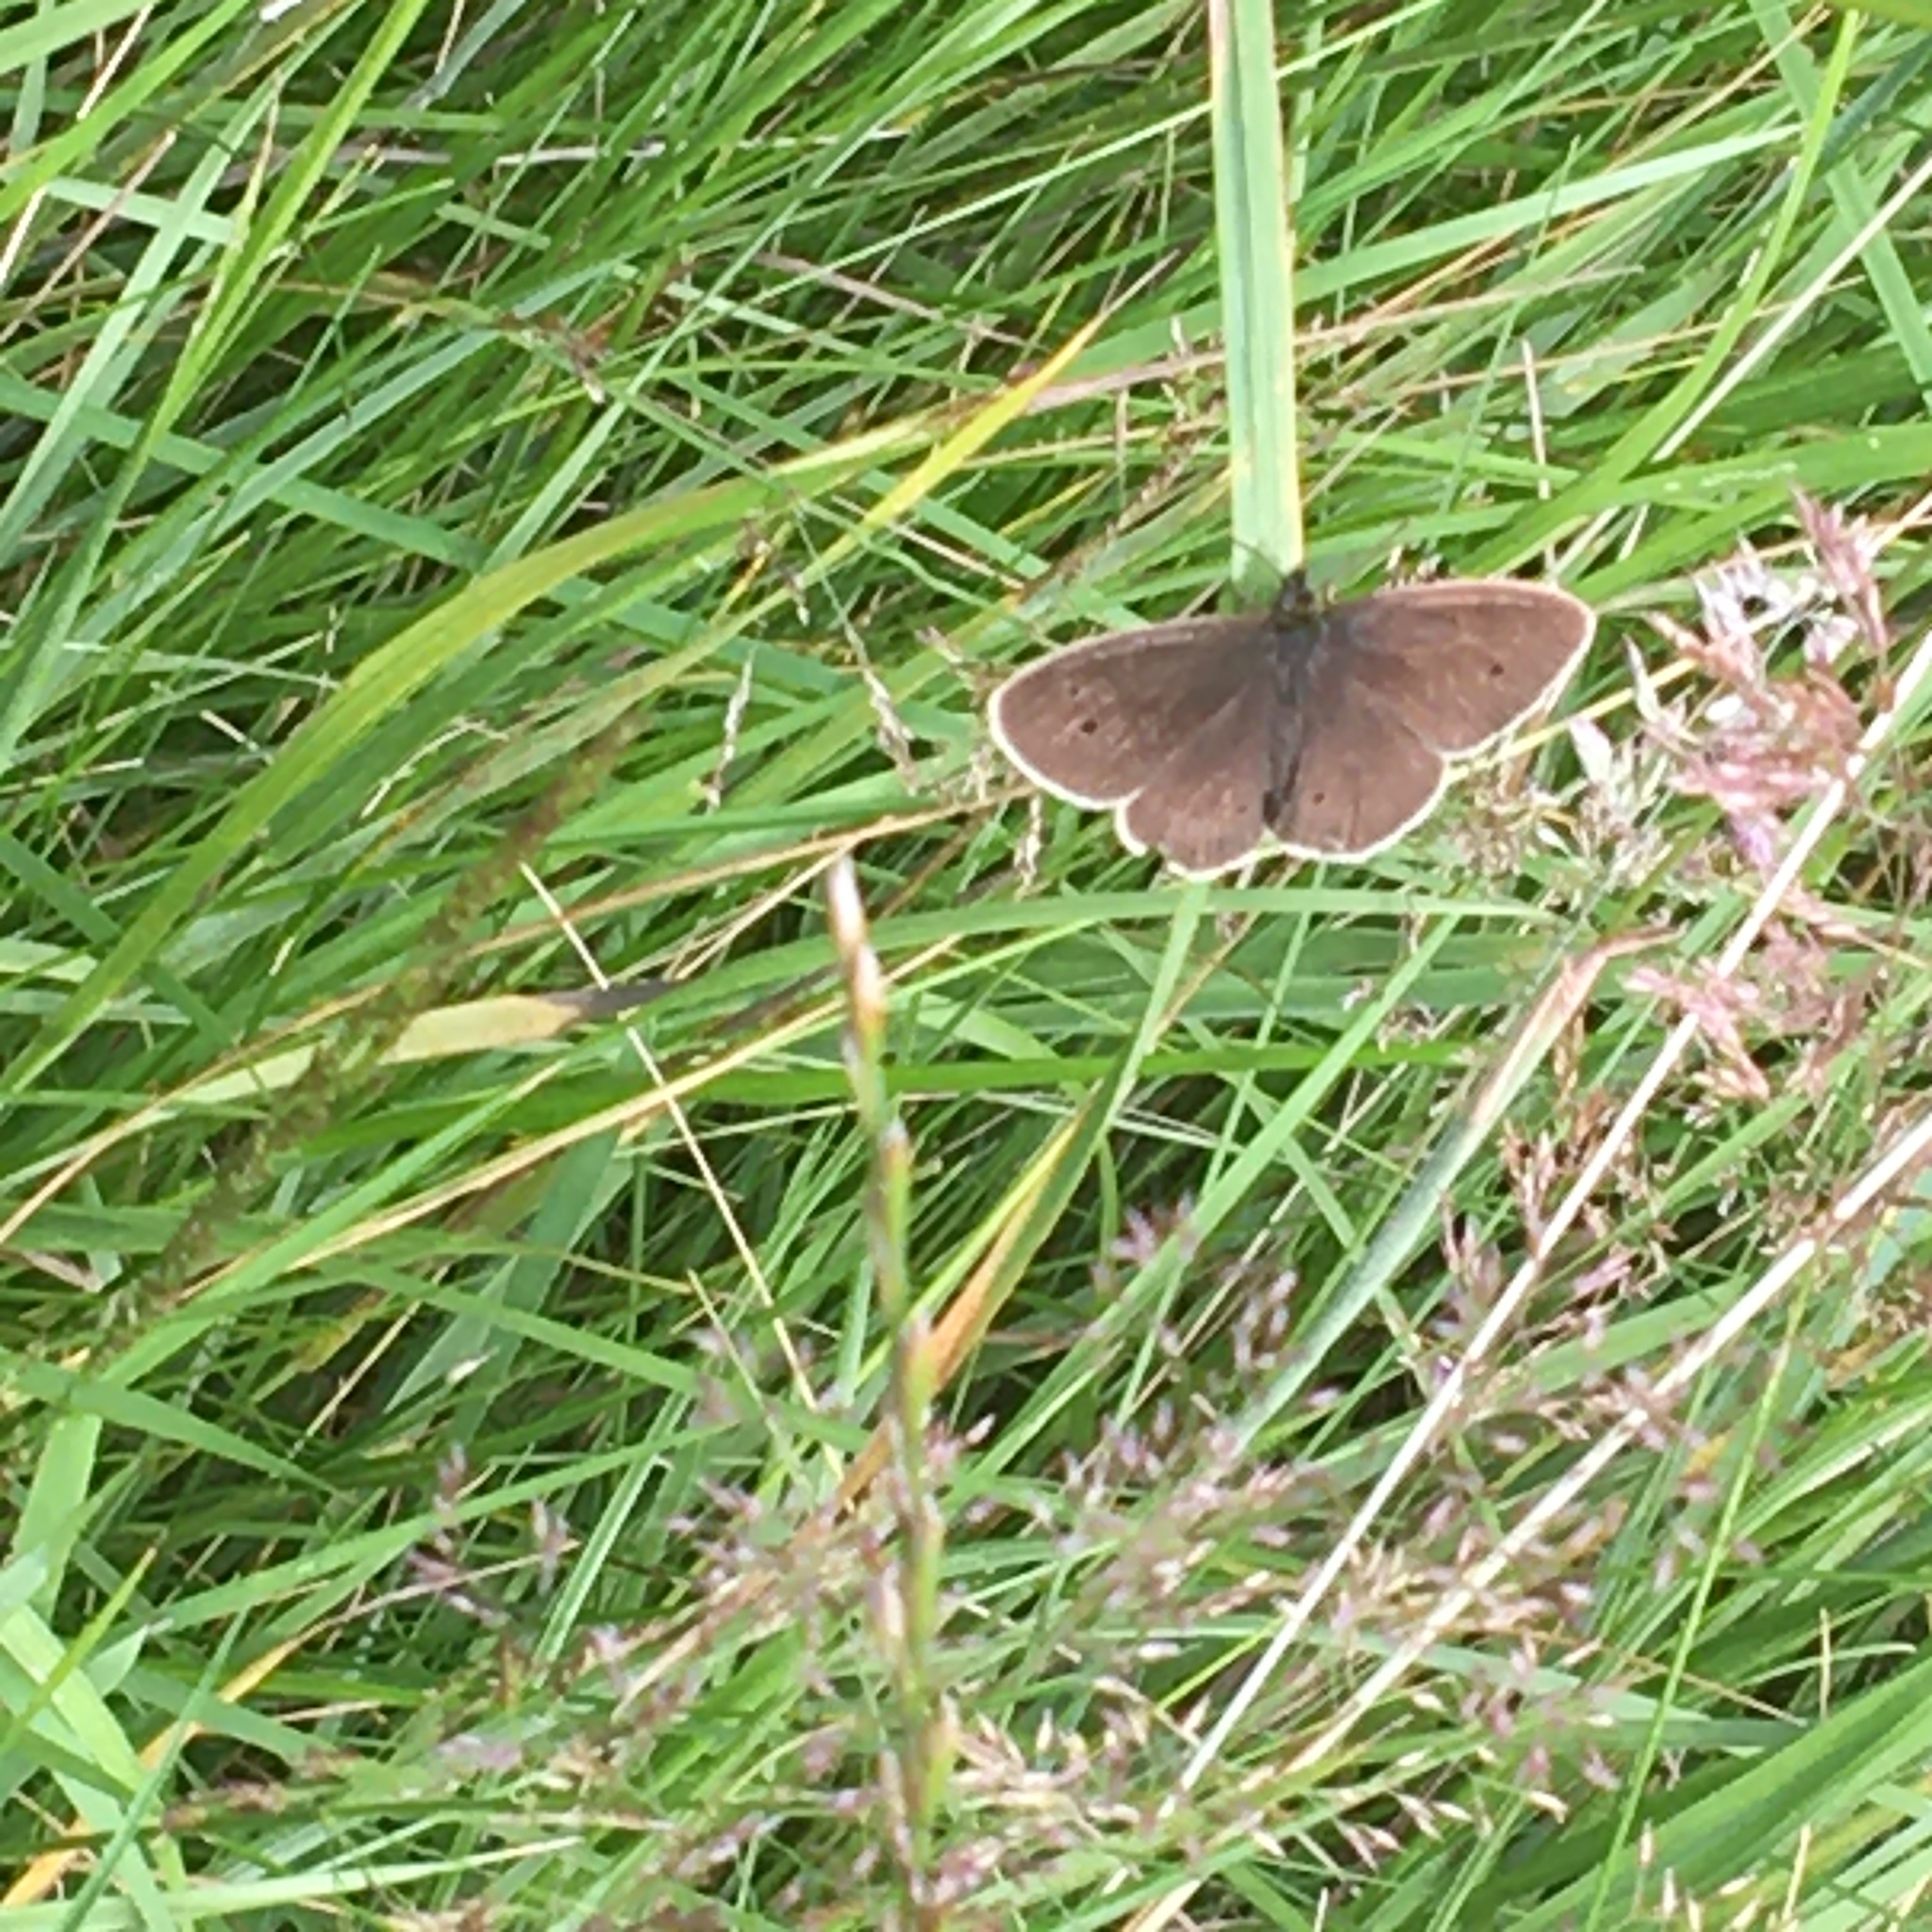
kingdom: Animalia
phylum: Arthropoda
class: Insecta
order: Lepidoptera
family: Nymphalidae
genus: Aphantopus
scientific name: Aphantopus hyperantus
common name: Ringlet
